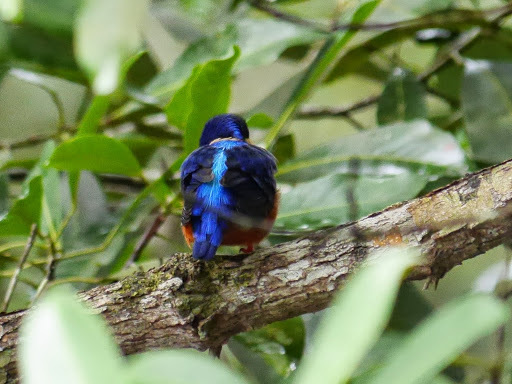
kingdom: Animalia
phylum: Chordata
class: Aves
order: Coraciiformes
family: Alcedinidae
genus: Alcedo
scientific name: Alcedo quadribrachys
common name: Shining-blue kingfisher
